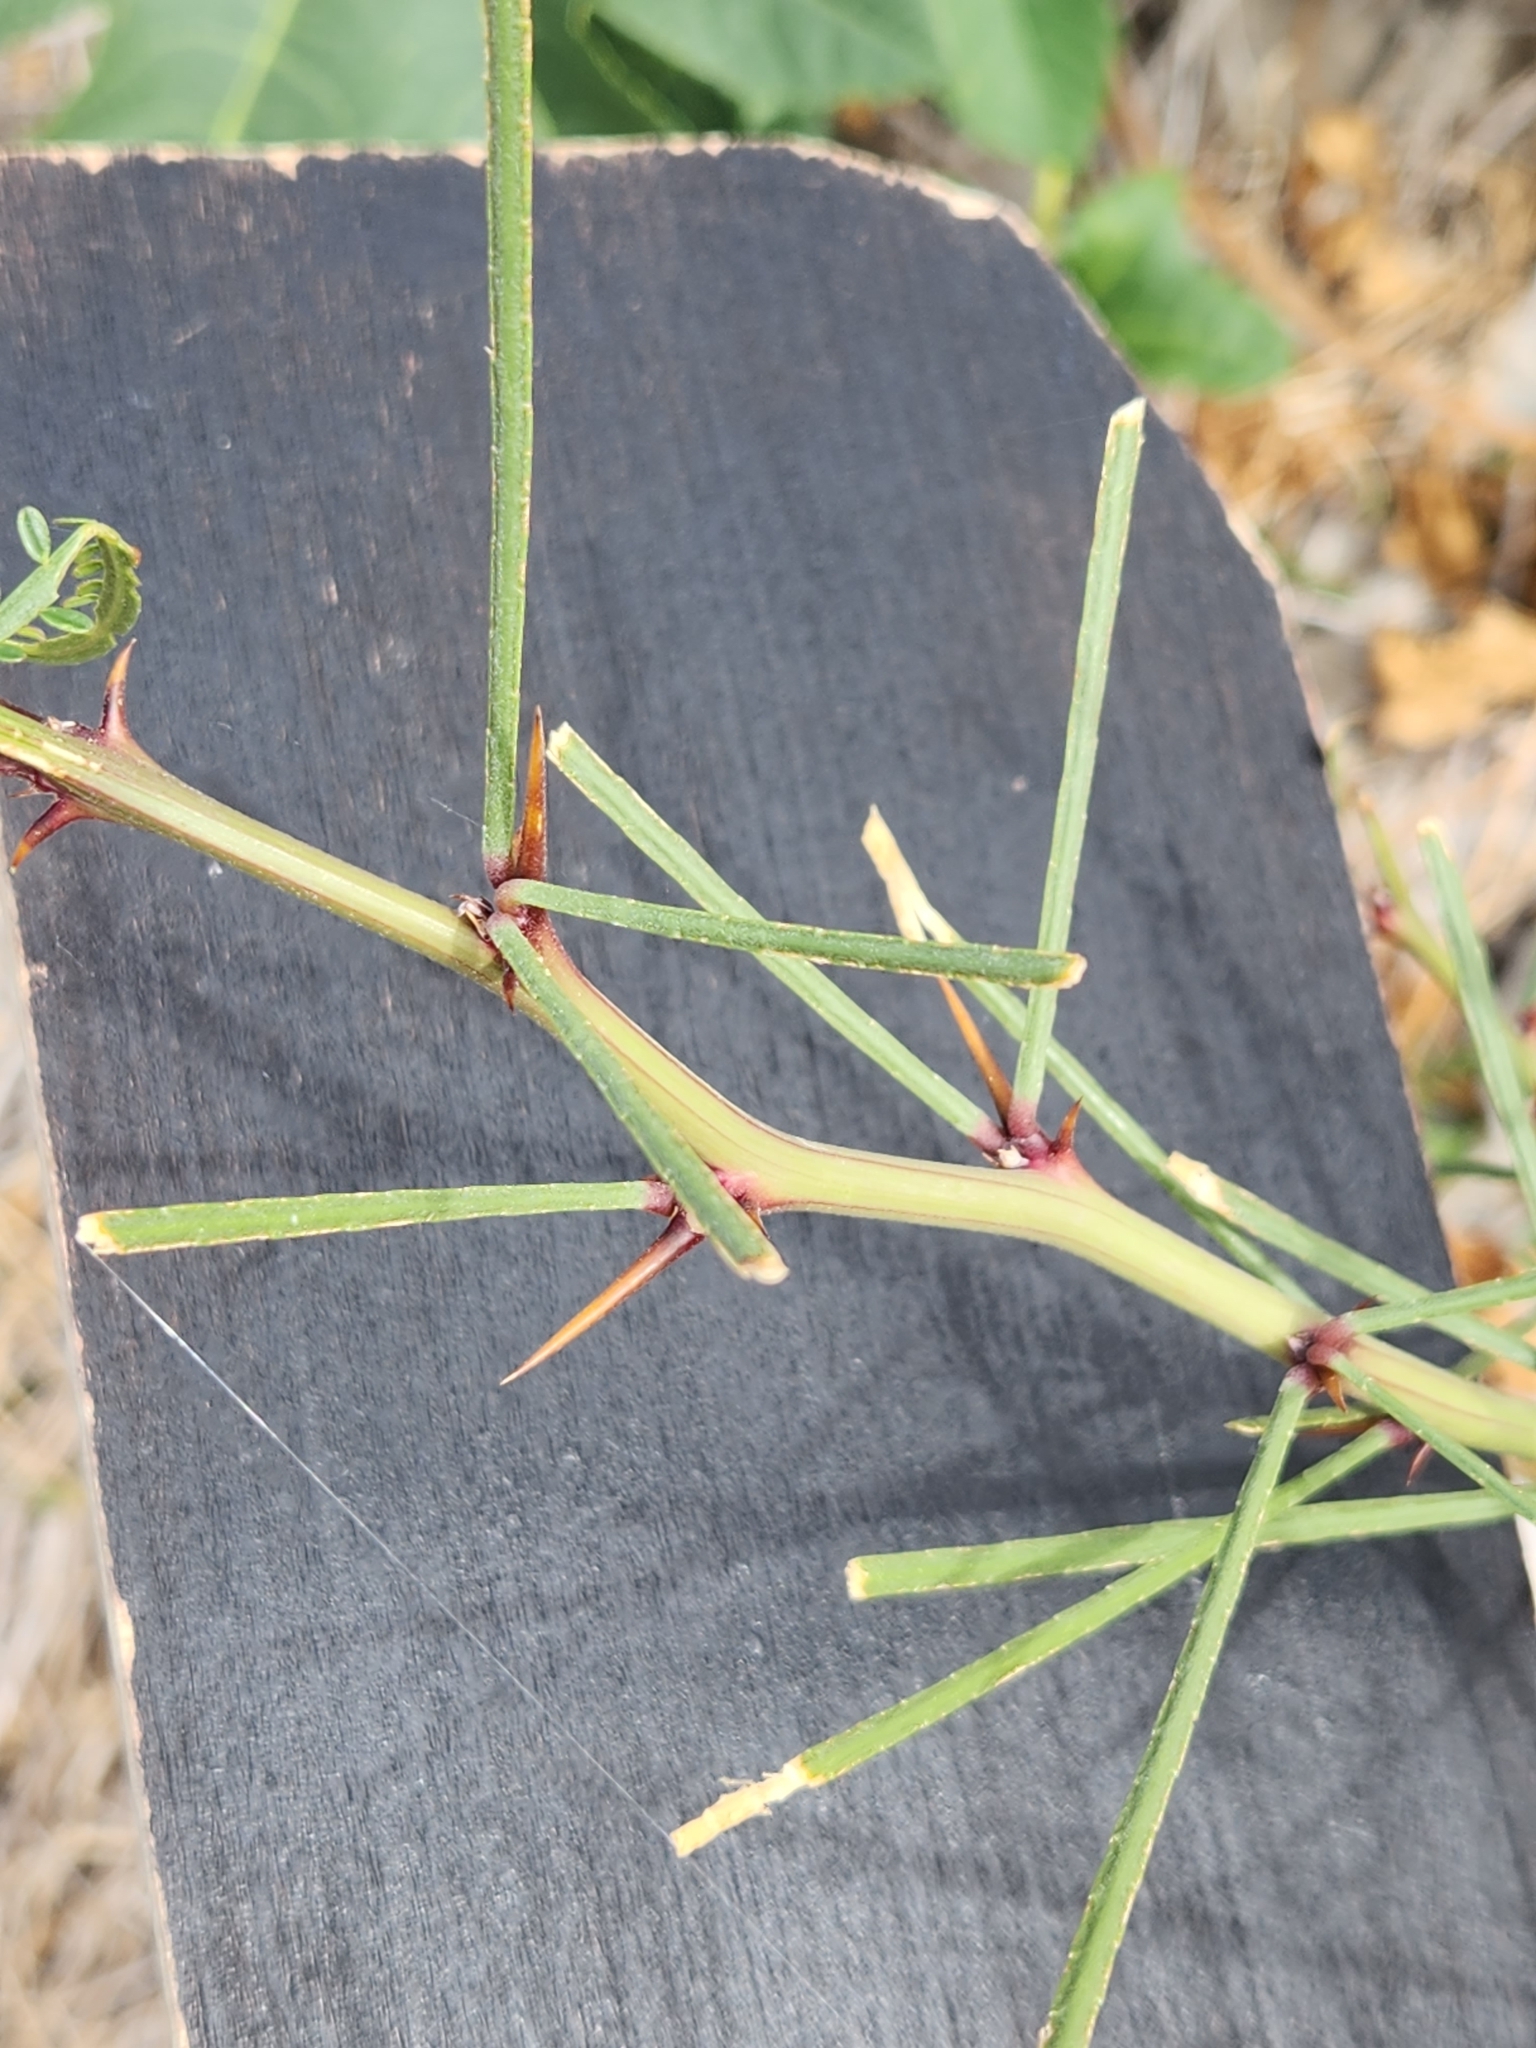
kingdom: Plantae
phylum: Tracheophyta
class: Magnoliopsida
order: Fabales
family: Fabaceae
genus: Parkinsonia
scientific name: Parkinsonia aculeata
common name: Jerusalem thorn
